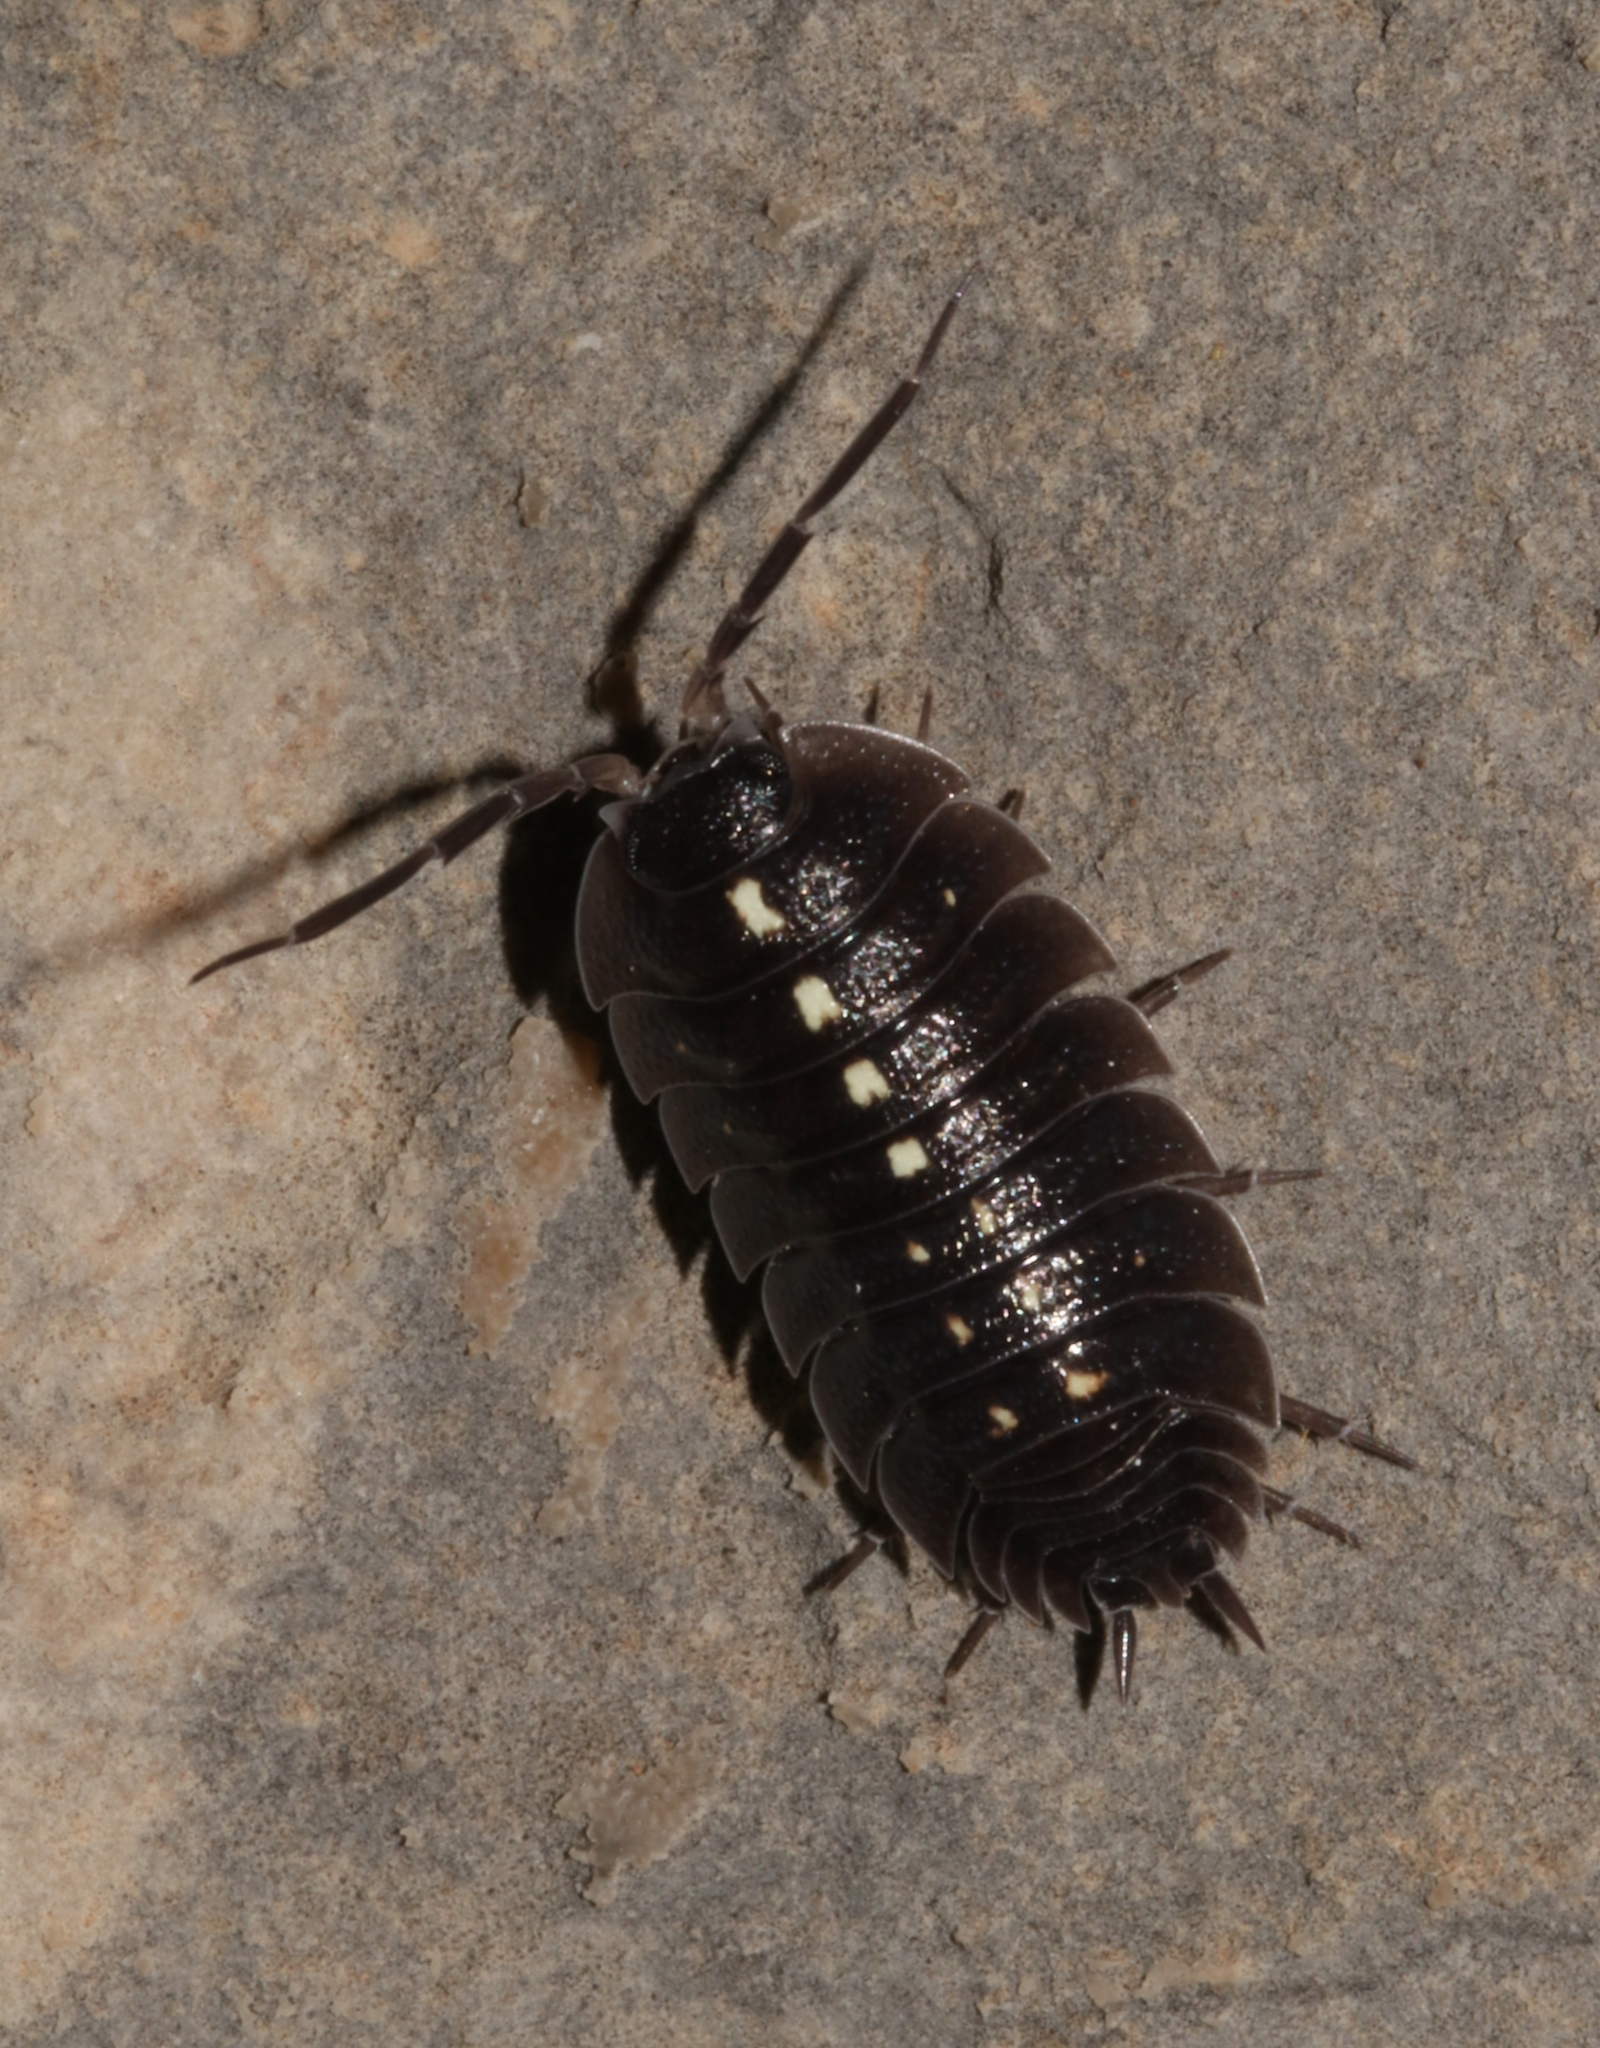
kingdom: Animalia
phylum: Arthropoda
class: Malacostraca
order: Isopoda
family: Porcellionidae
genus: Porcellio
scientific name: Porcellio messenicus
